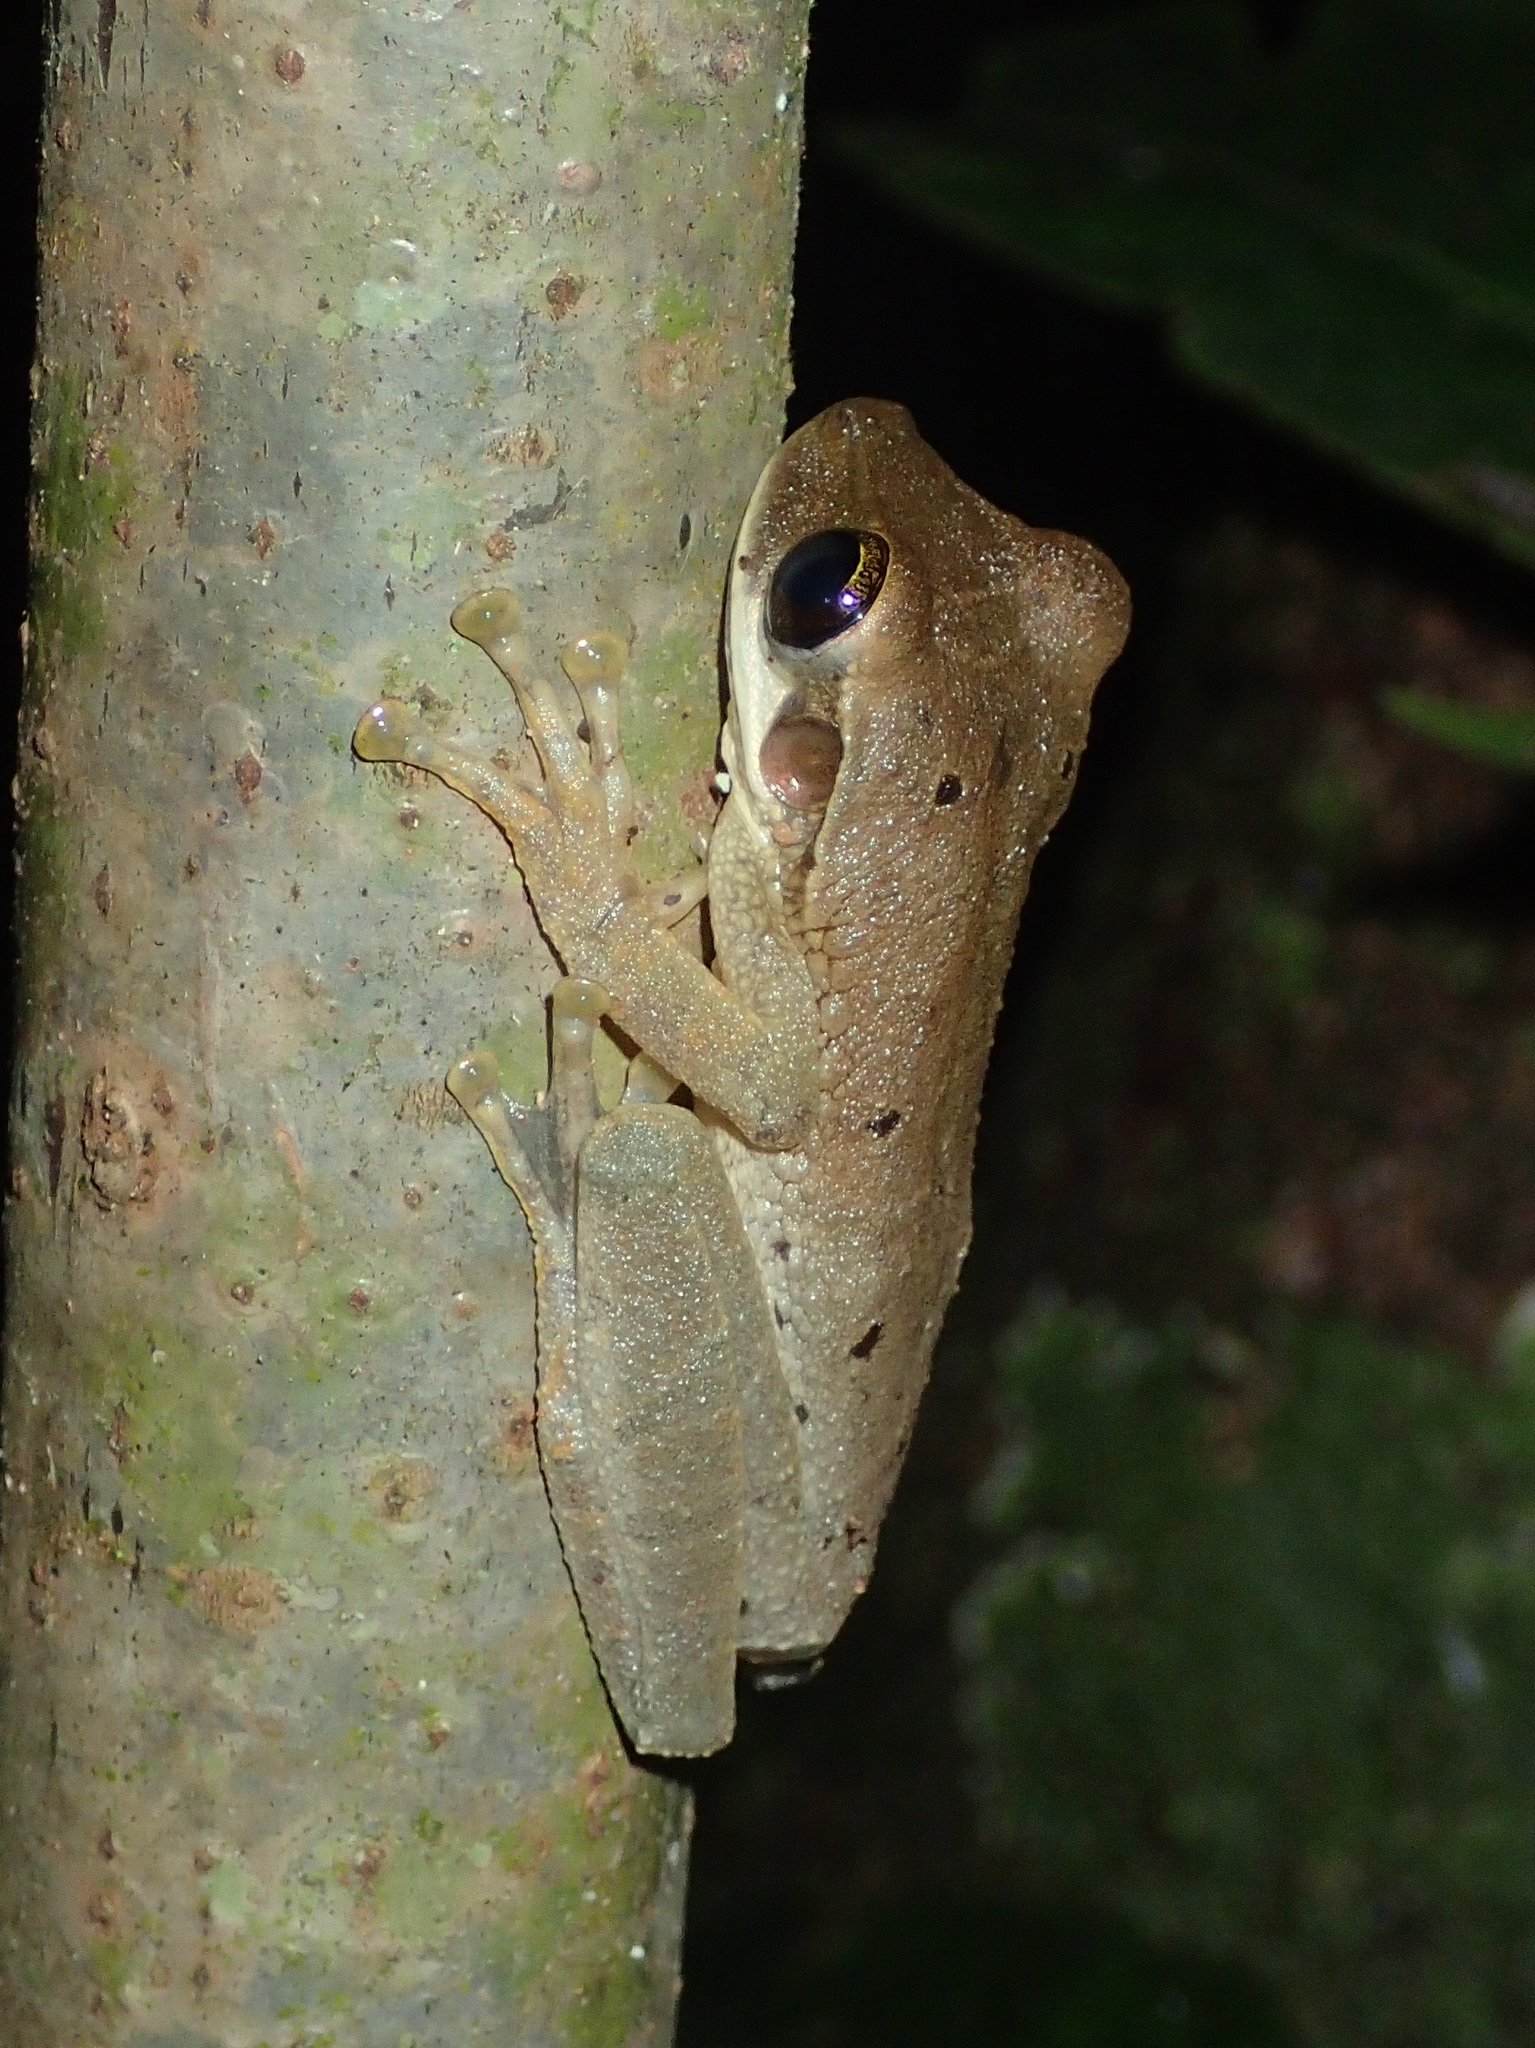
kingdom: Animalia
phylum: Chordata
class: Amphibia
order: Anura
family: Hylidae
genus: Osteocephalus
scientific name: Osteocephalus planiceps
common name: Flat headed bromeliad treefrog
